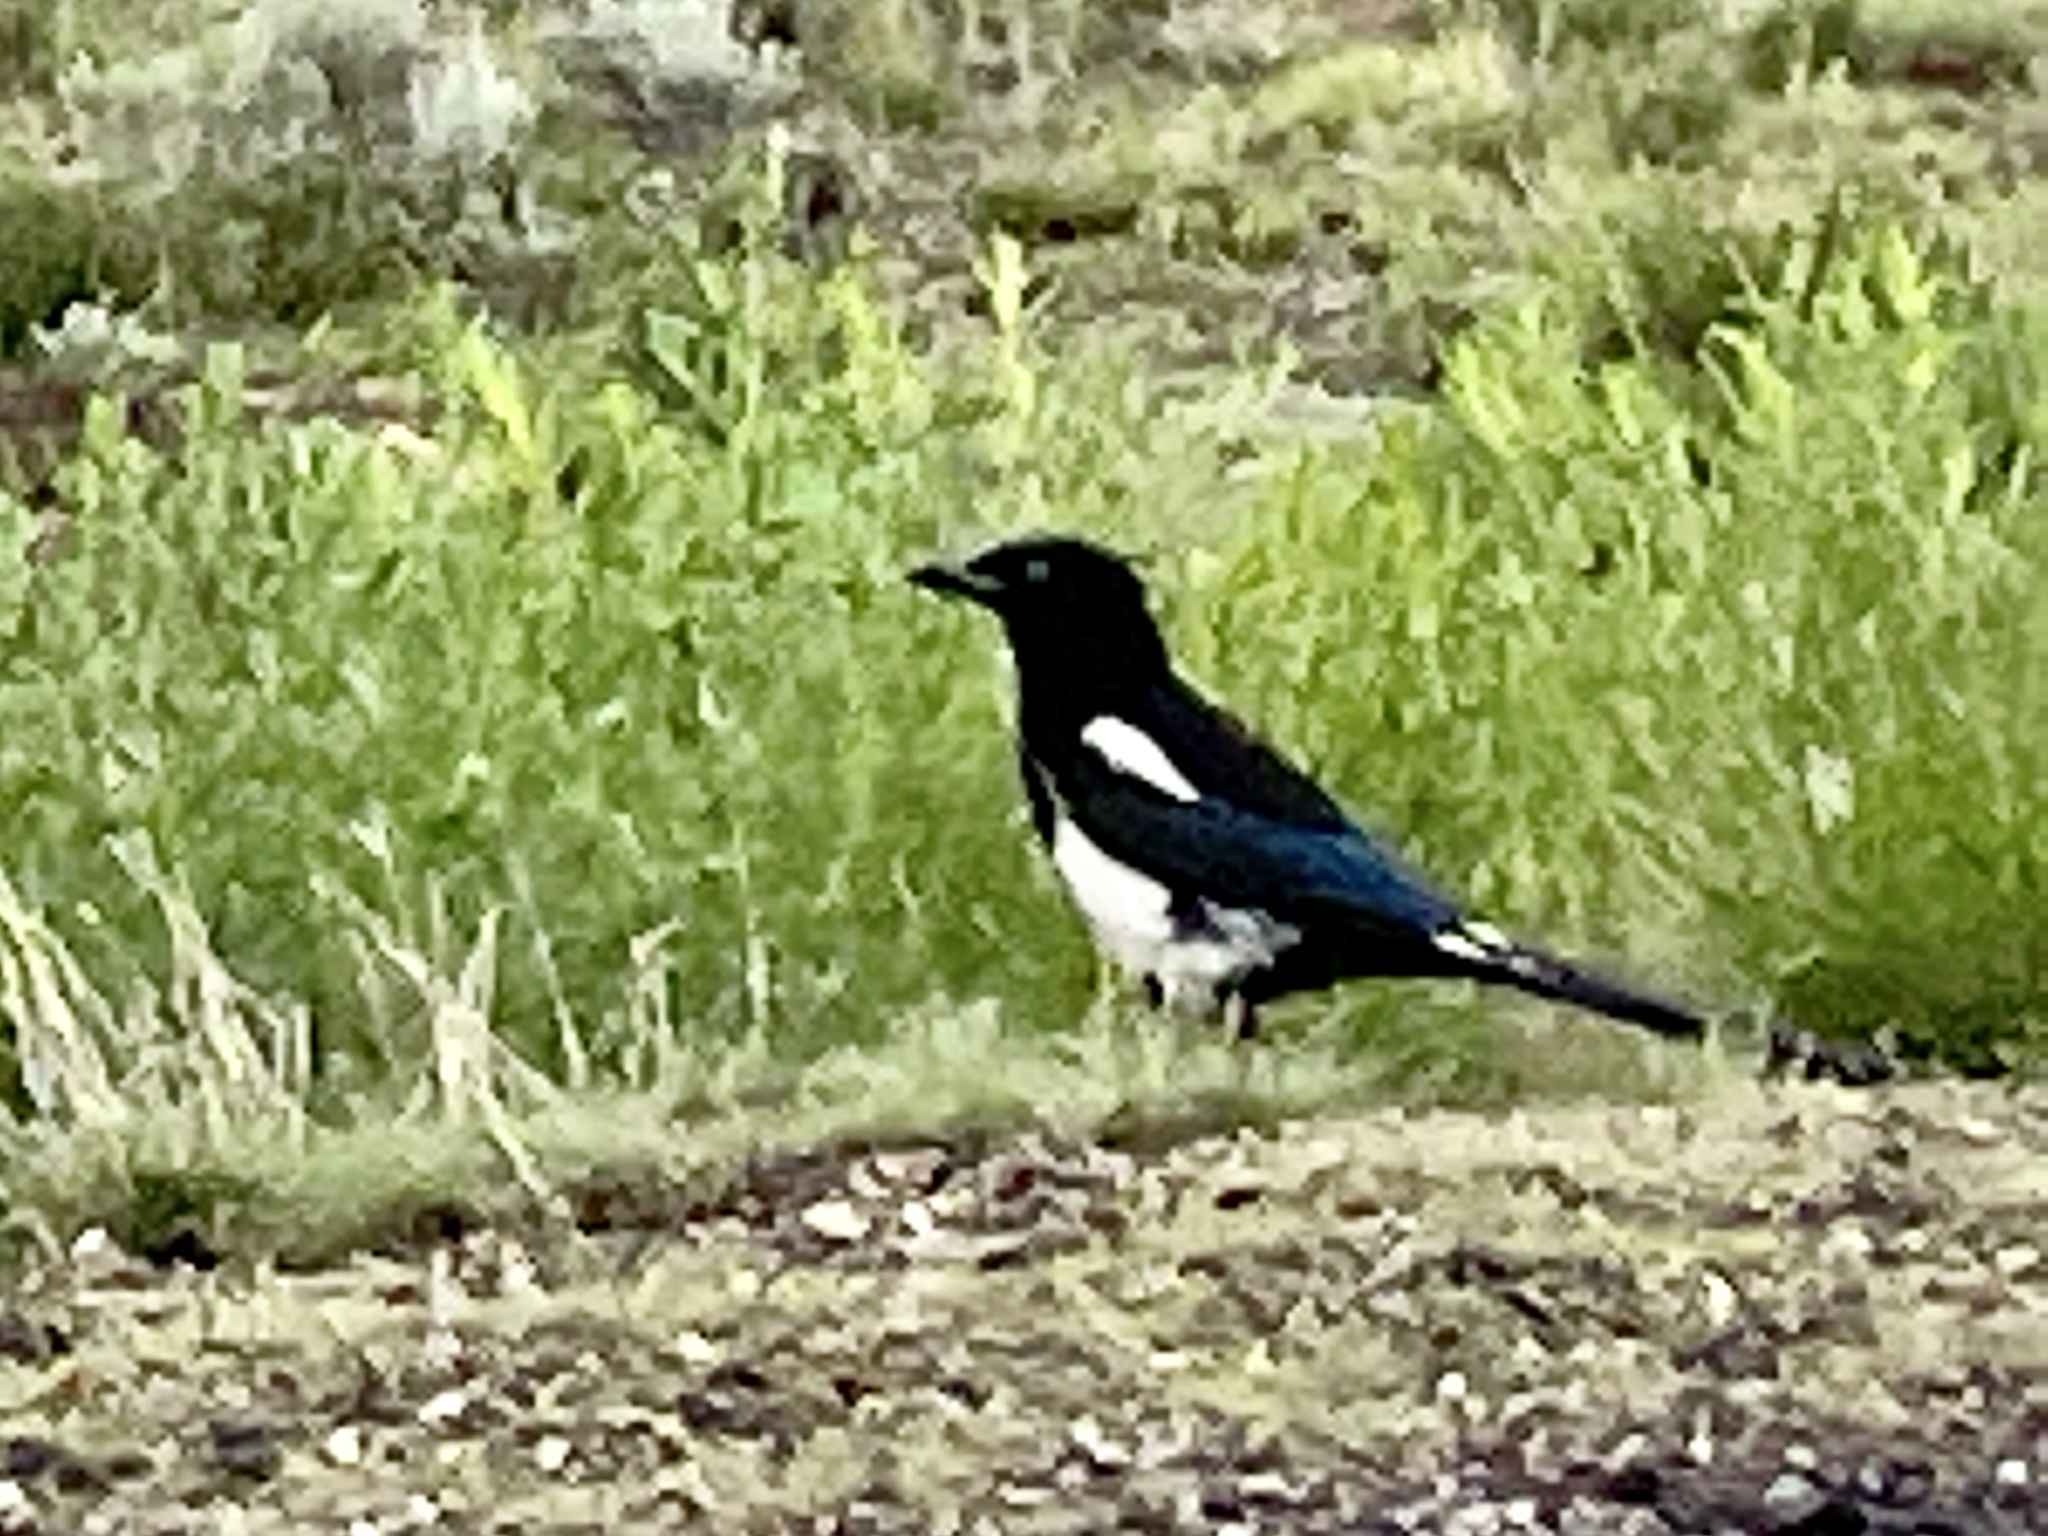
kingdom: Animalia
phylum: Chordata
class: Aves
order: Passeriformes
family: Corvidae
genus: Pica
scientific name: Pica hudsonia
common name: Black-billed magpie
